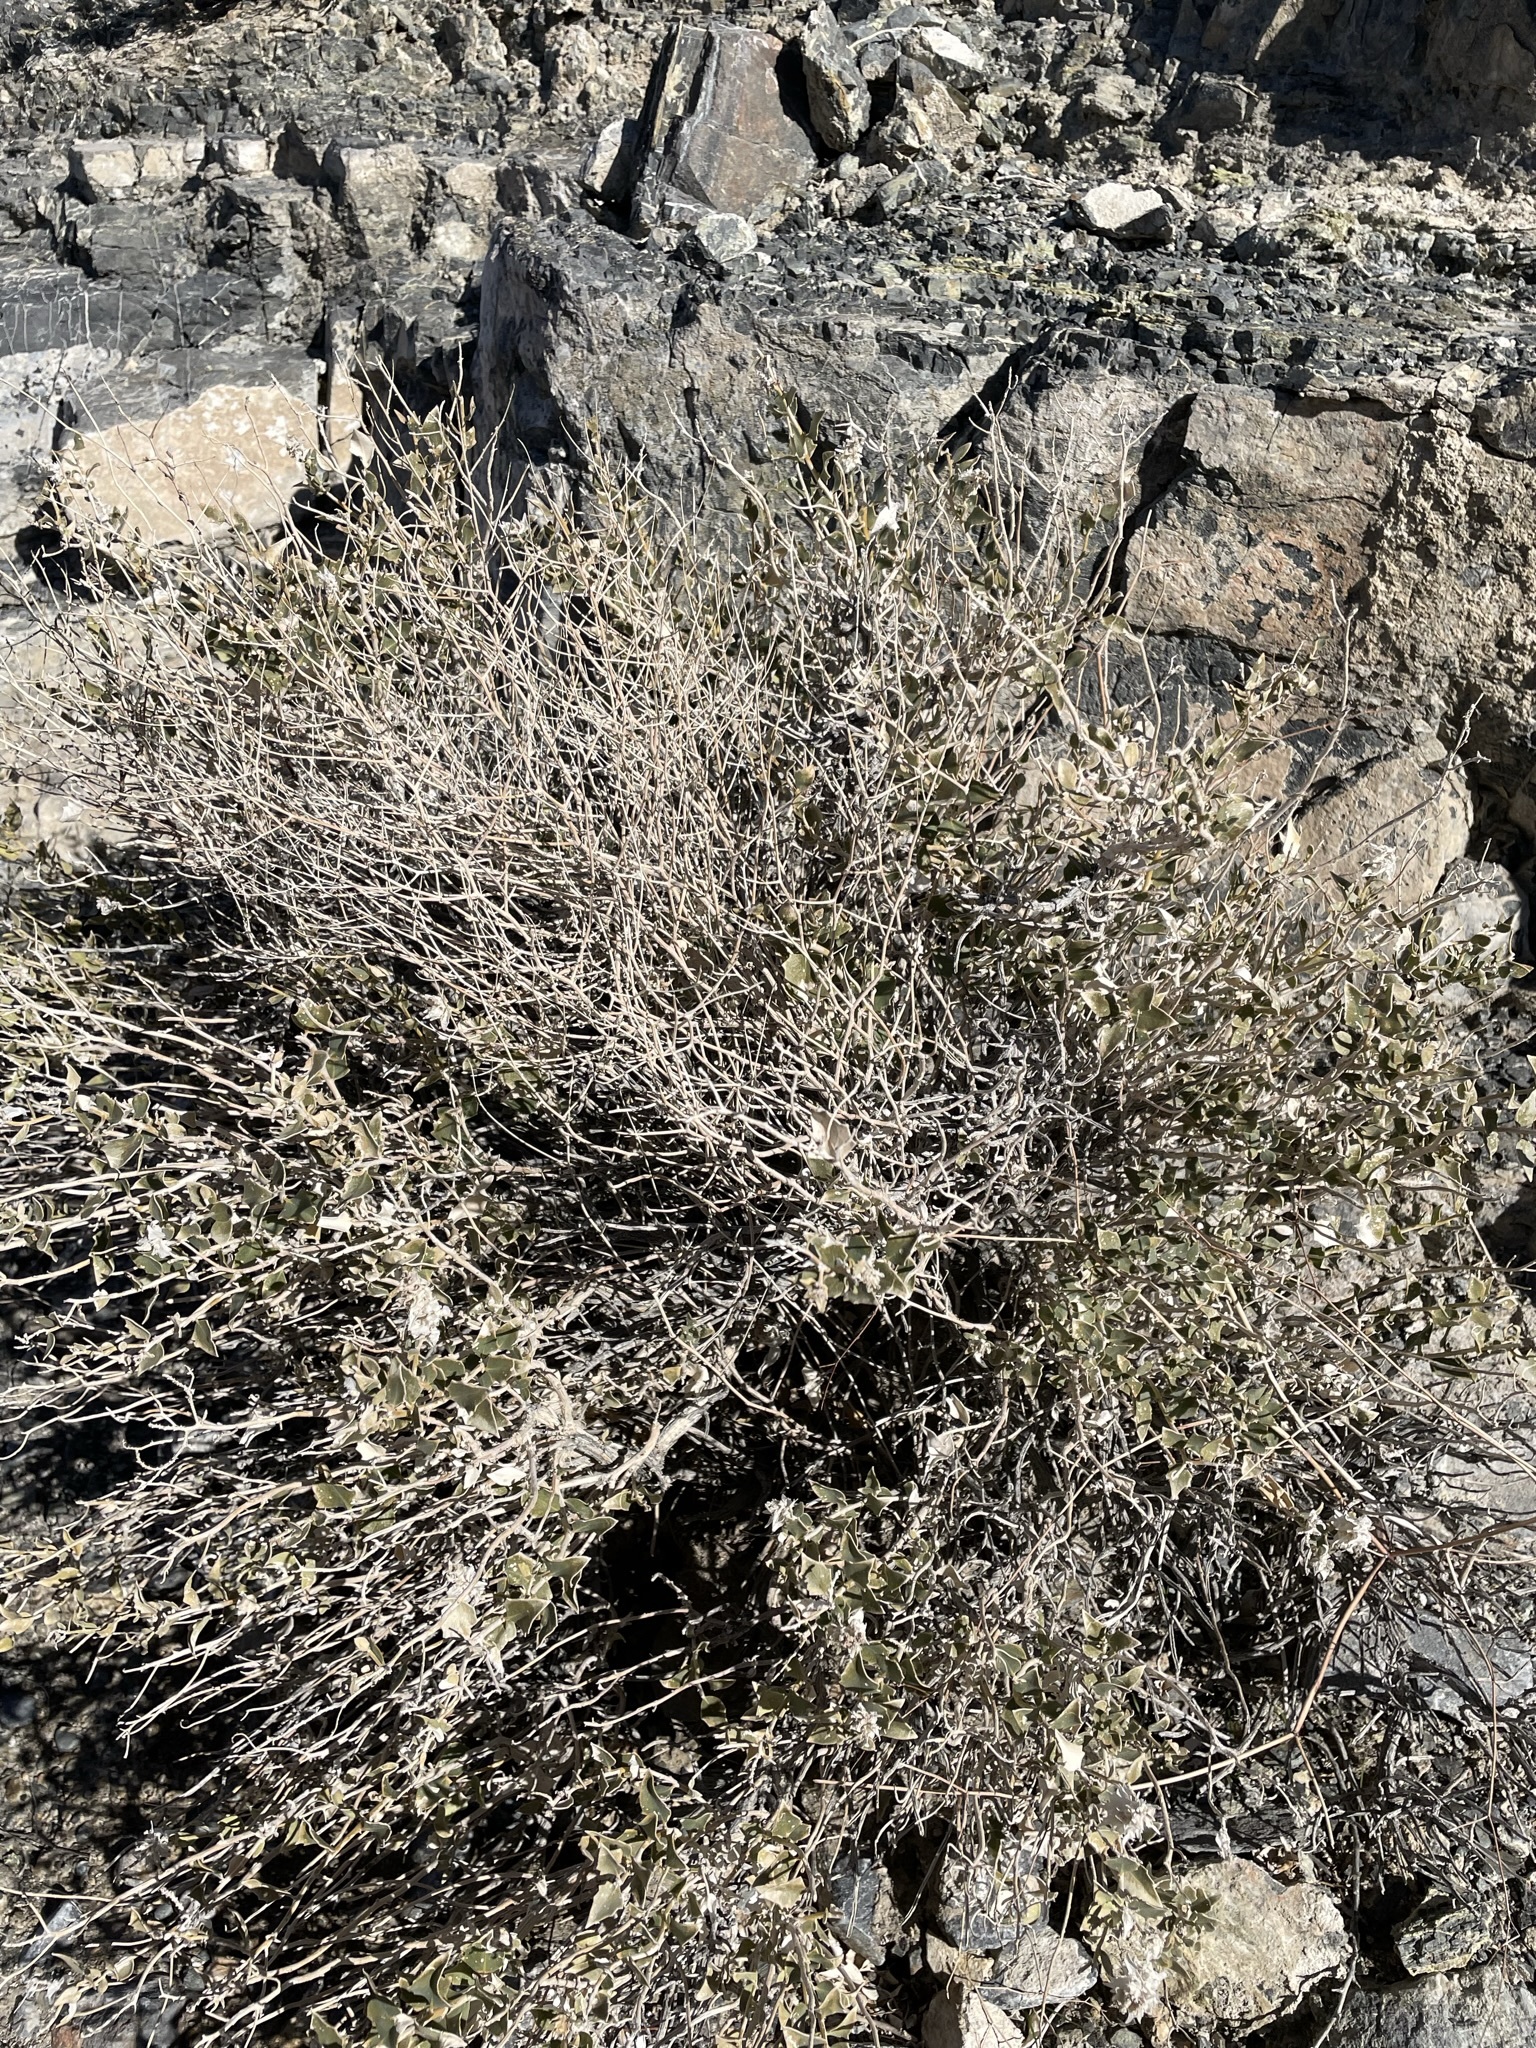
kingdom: Plantae
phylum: Tracheophyta
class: Magnoliopsida
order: Cornales
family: Loasaceae
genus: Petalonyx
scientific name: Petalonyx nitidus
